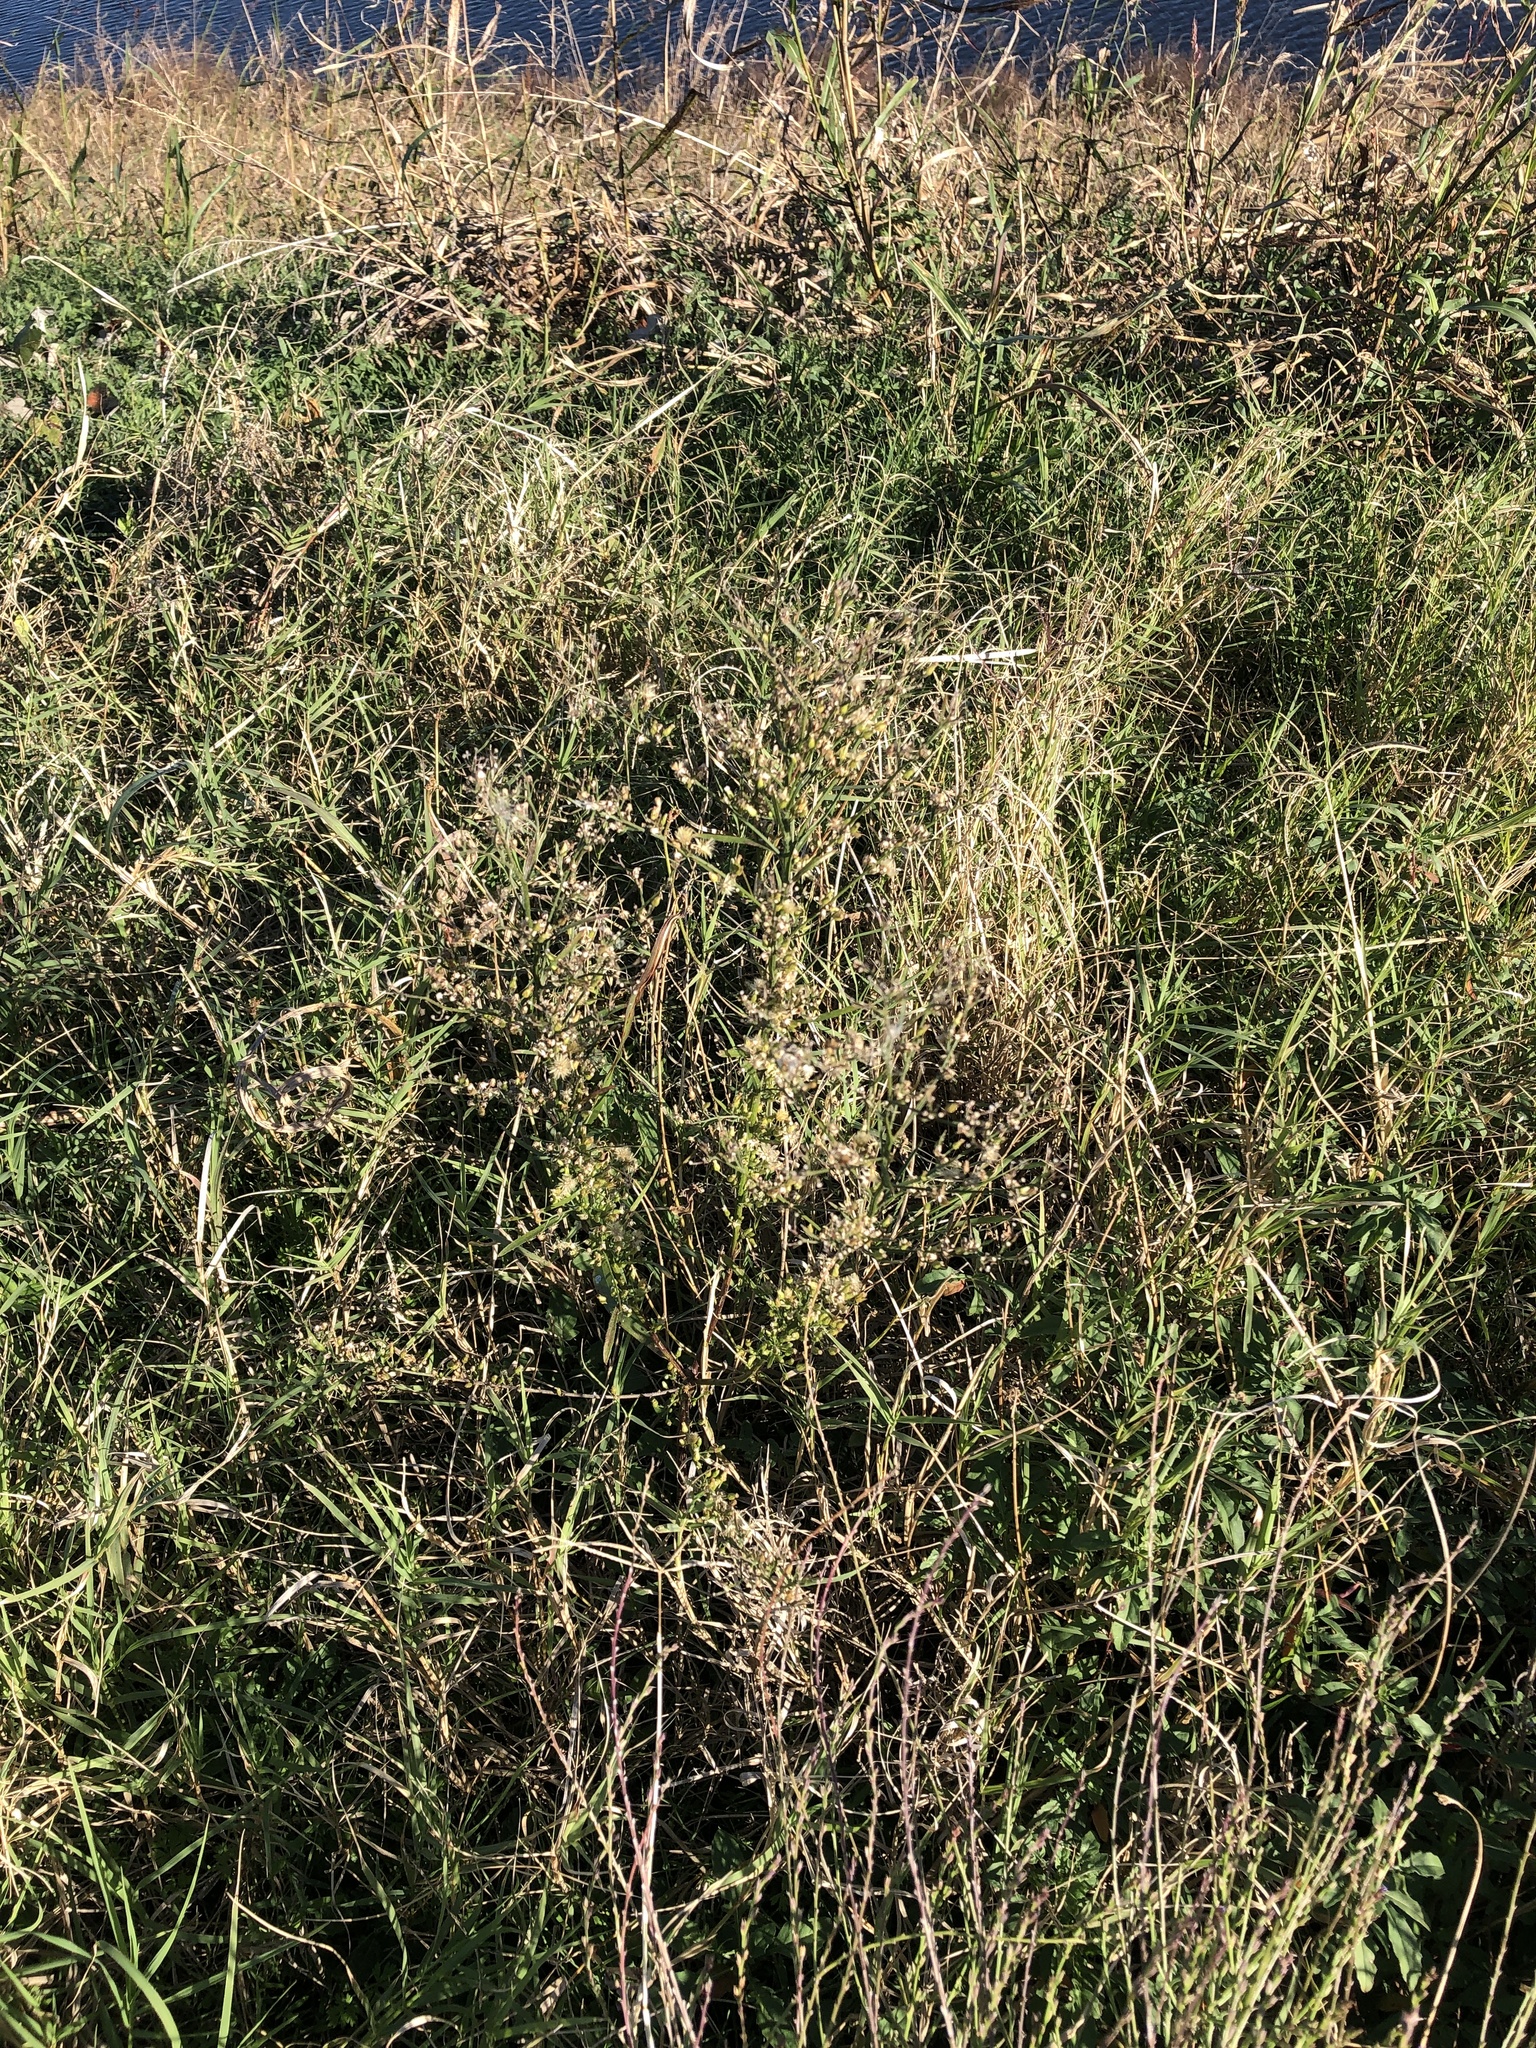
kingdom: Plantae
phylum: Tracheophyta
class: Magnoliopsida
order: Asterales
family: Asteraceae
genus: Erigeron
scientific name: Erigeron canadensis
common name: Canadian fleabane
